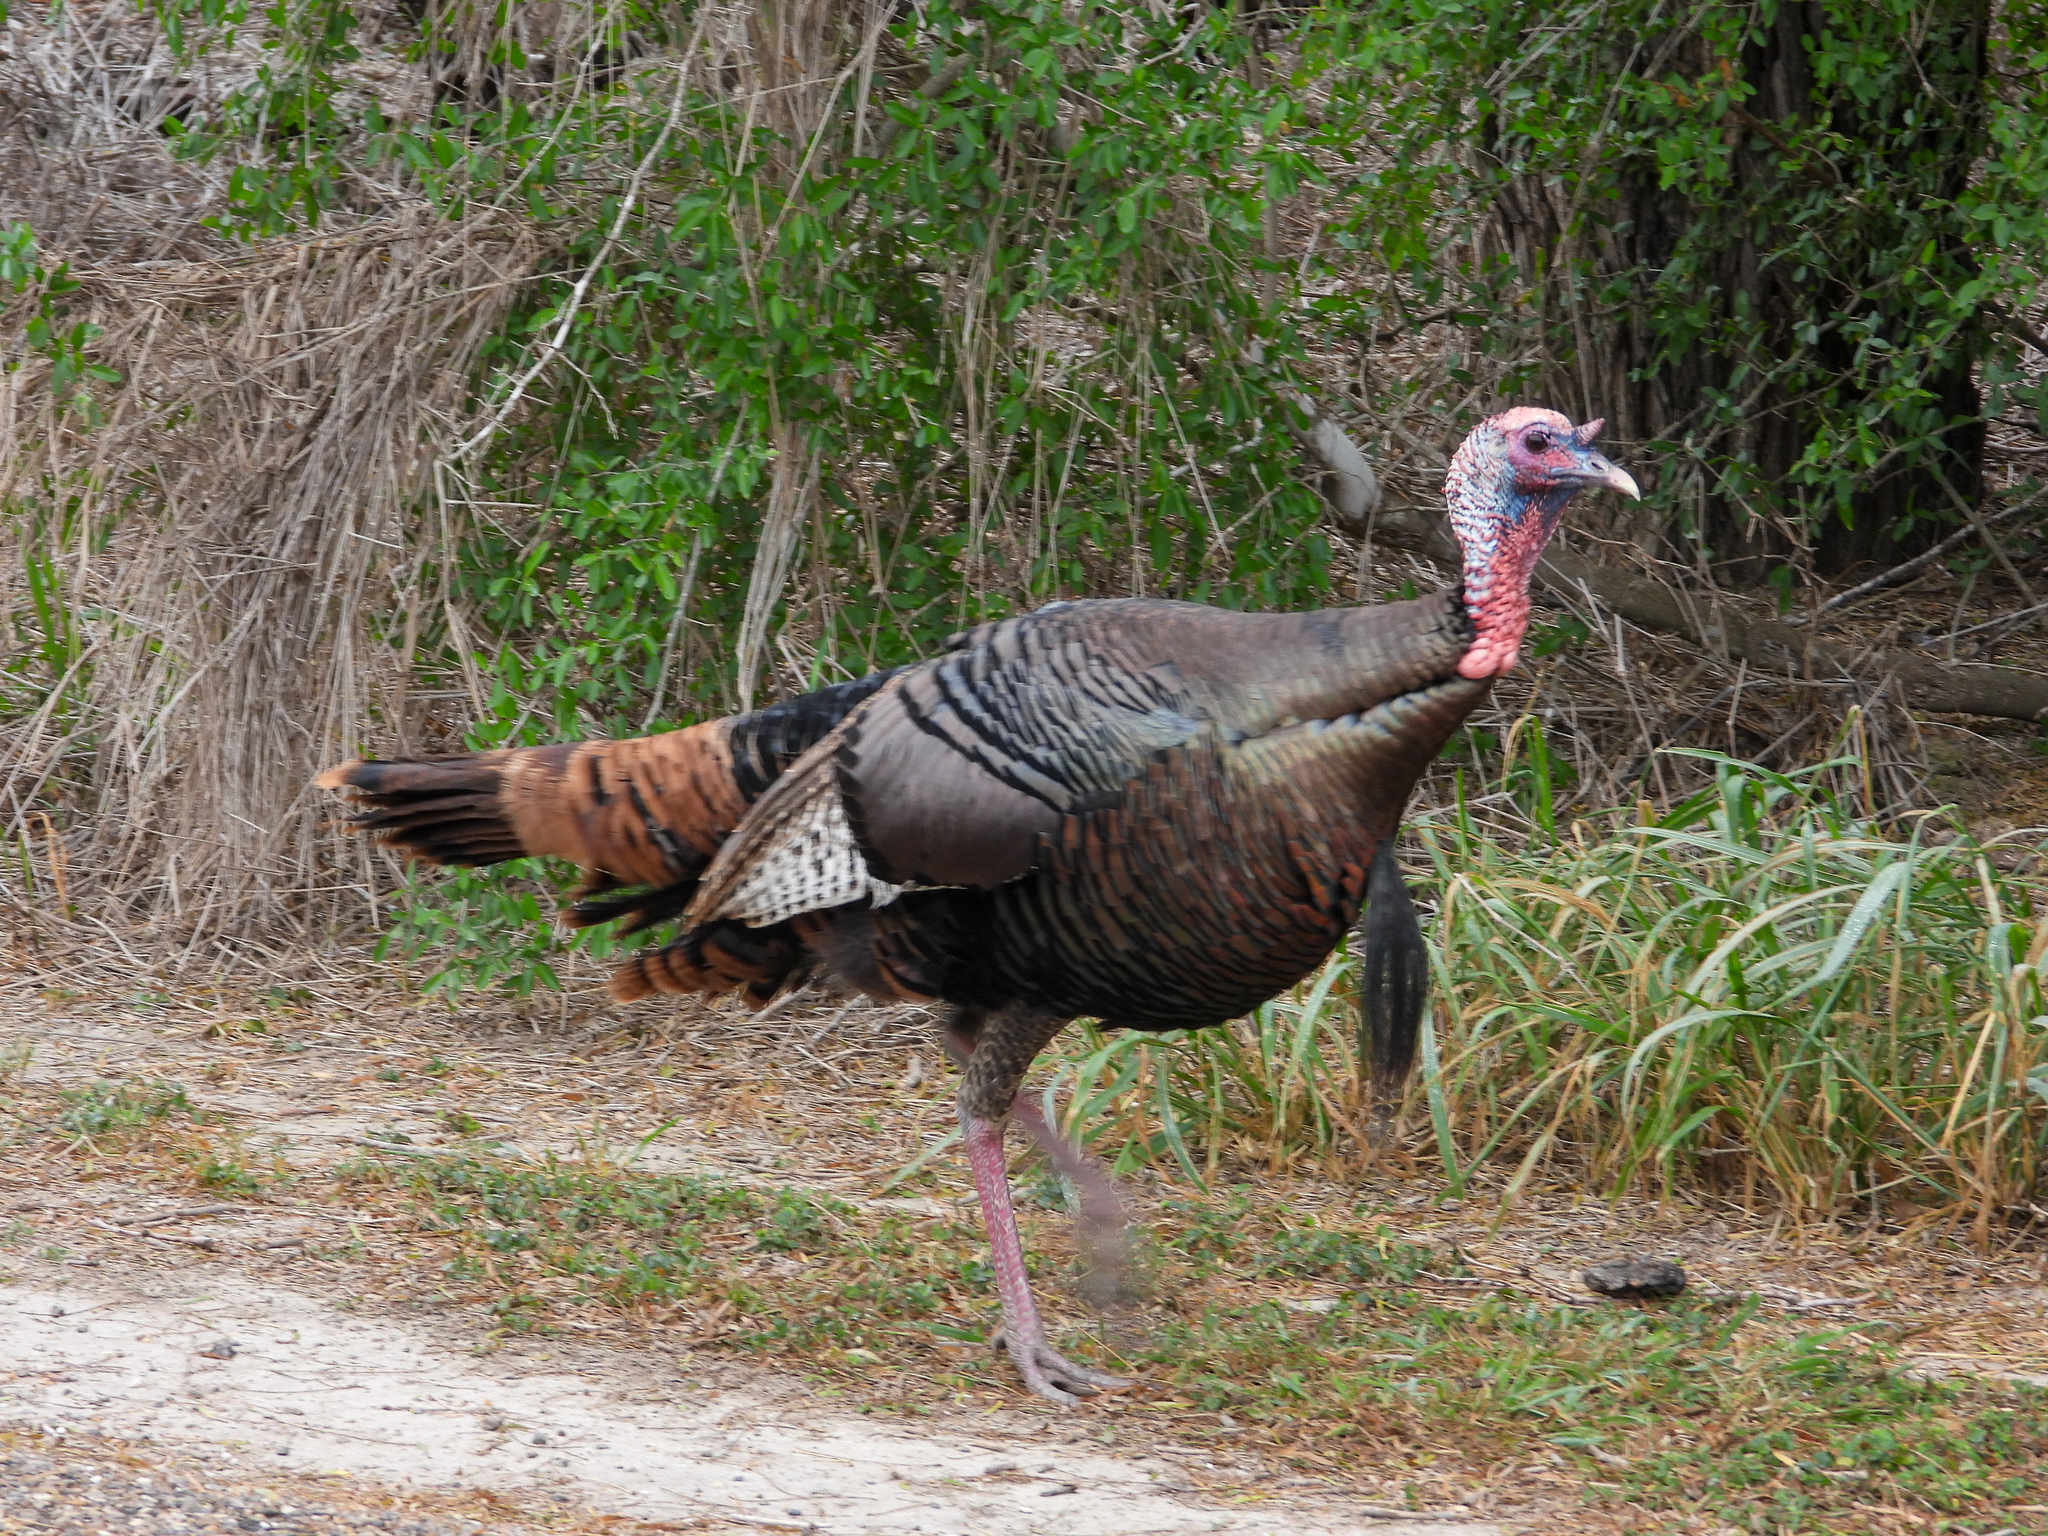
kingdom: Animalia
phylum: Chordata
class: Aves
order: Galliformes
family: Phasianidae
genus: Meleagris
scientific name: Meleagris gallopavo
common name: Wild turkey
